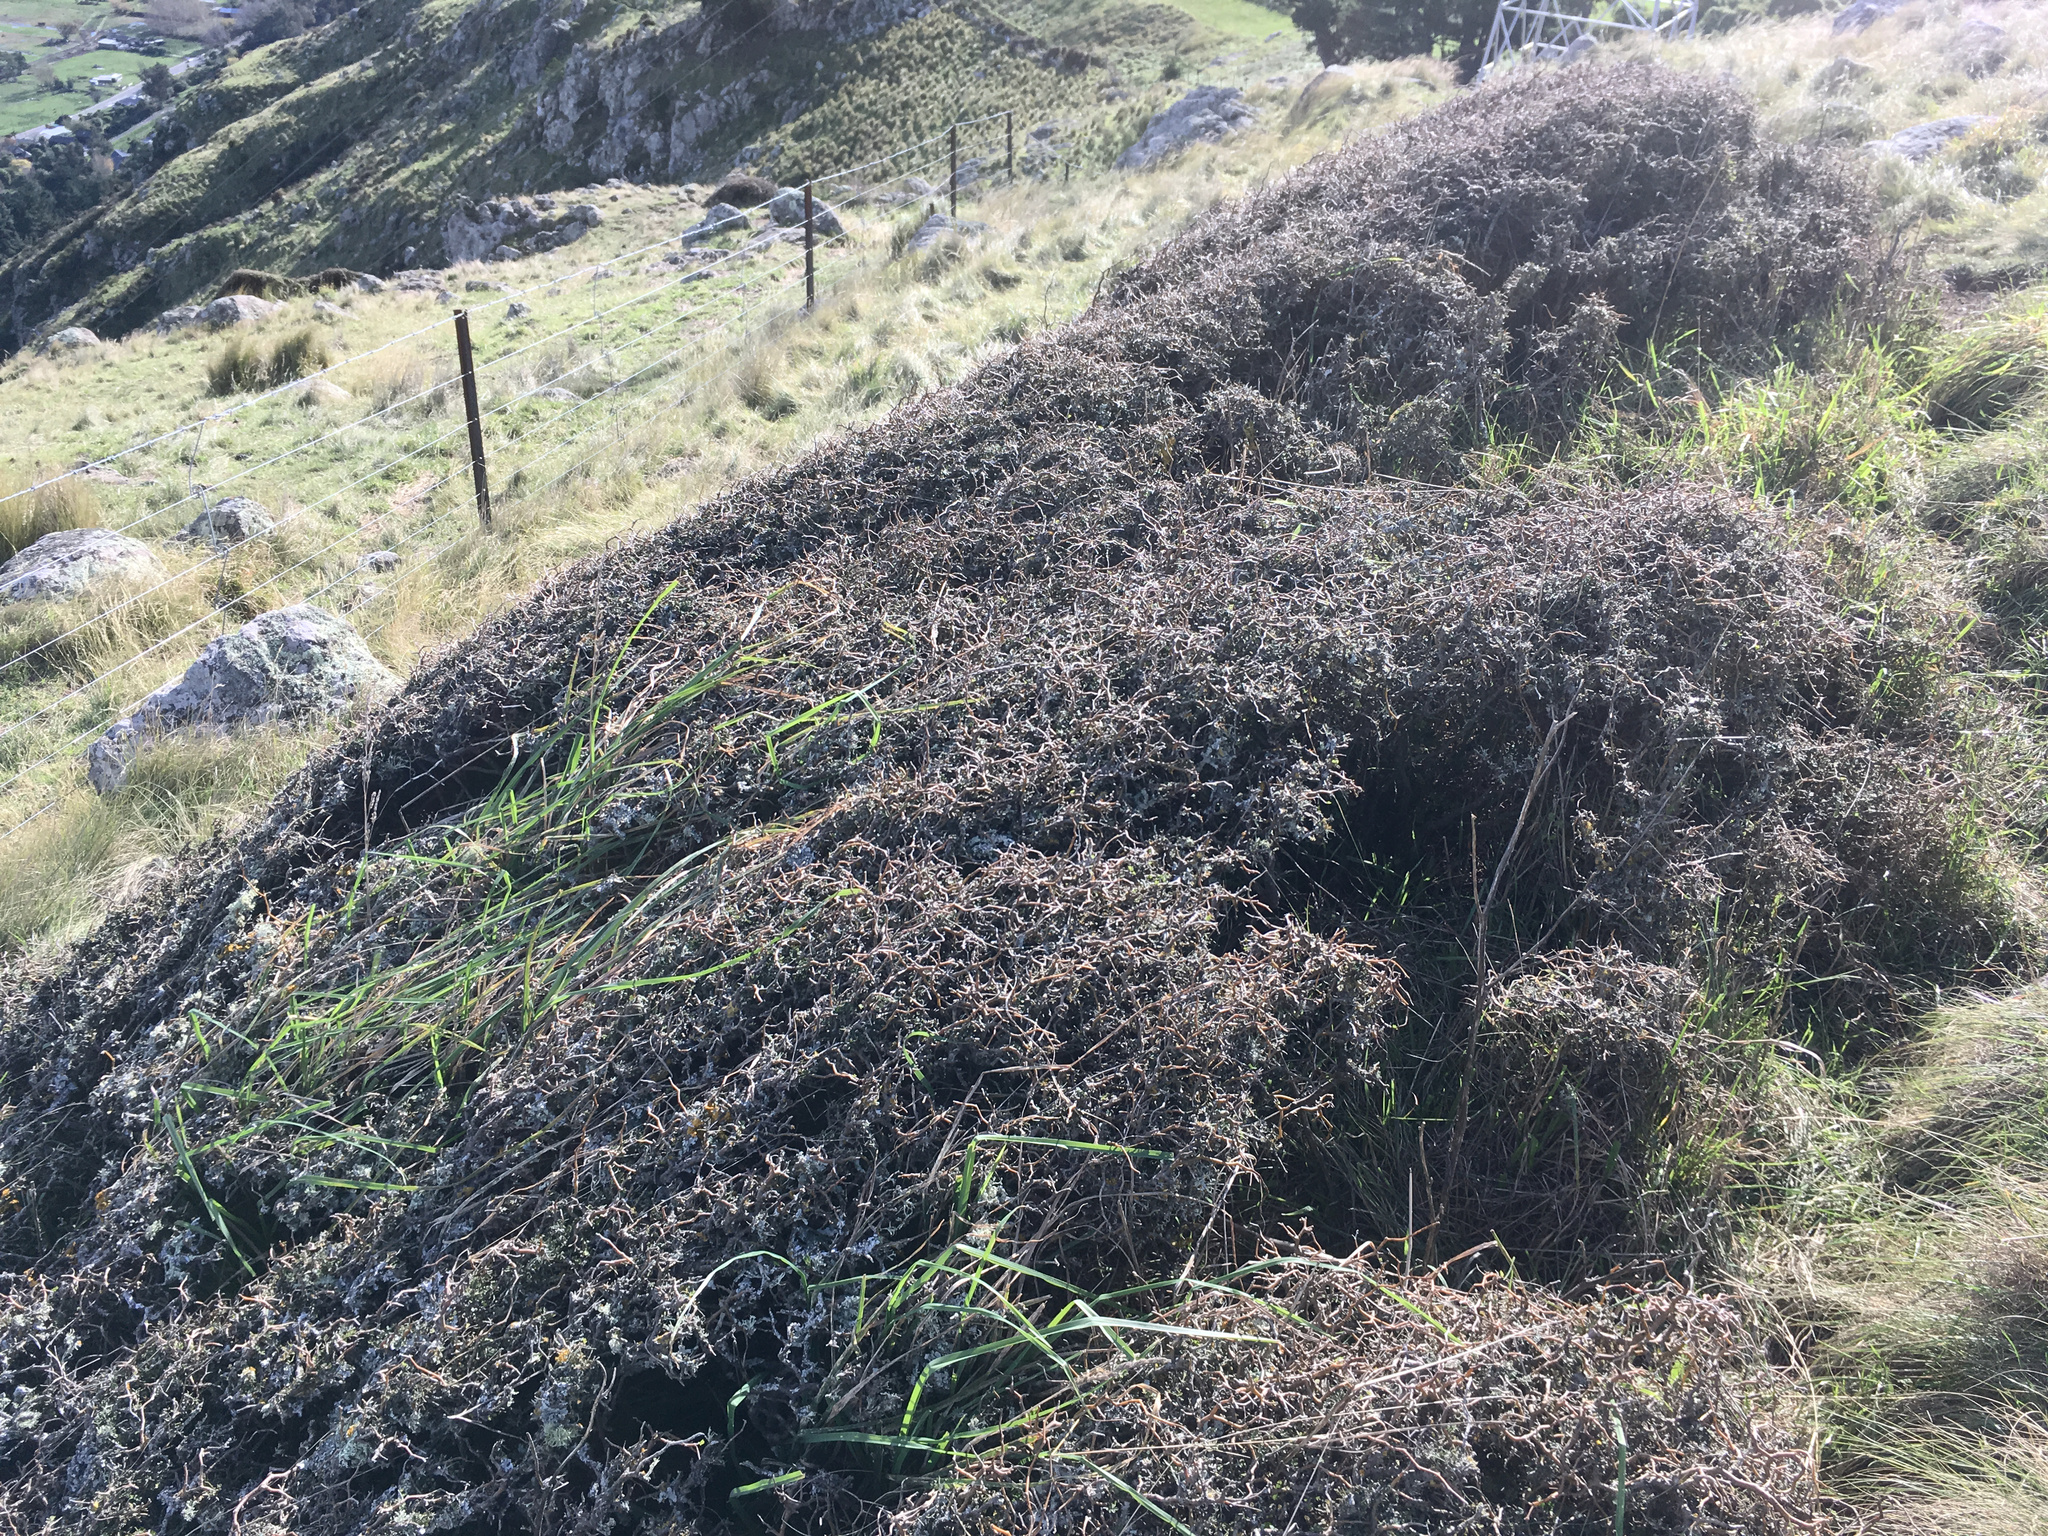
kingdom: Plantae
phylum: Tracheophyta
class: Magnoliopsida
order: Fabales
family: Fabaceae
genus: Sophora
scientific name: Sophora prostrata
